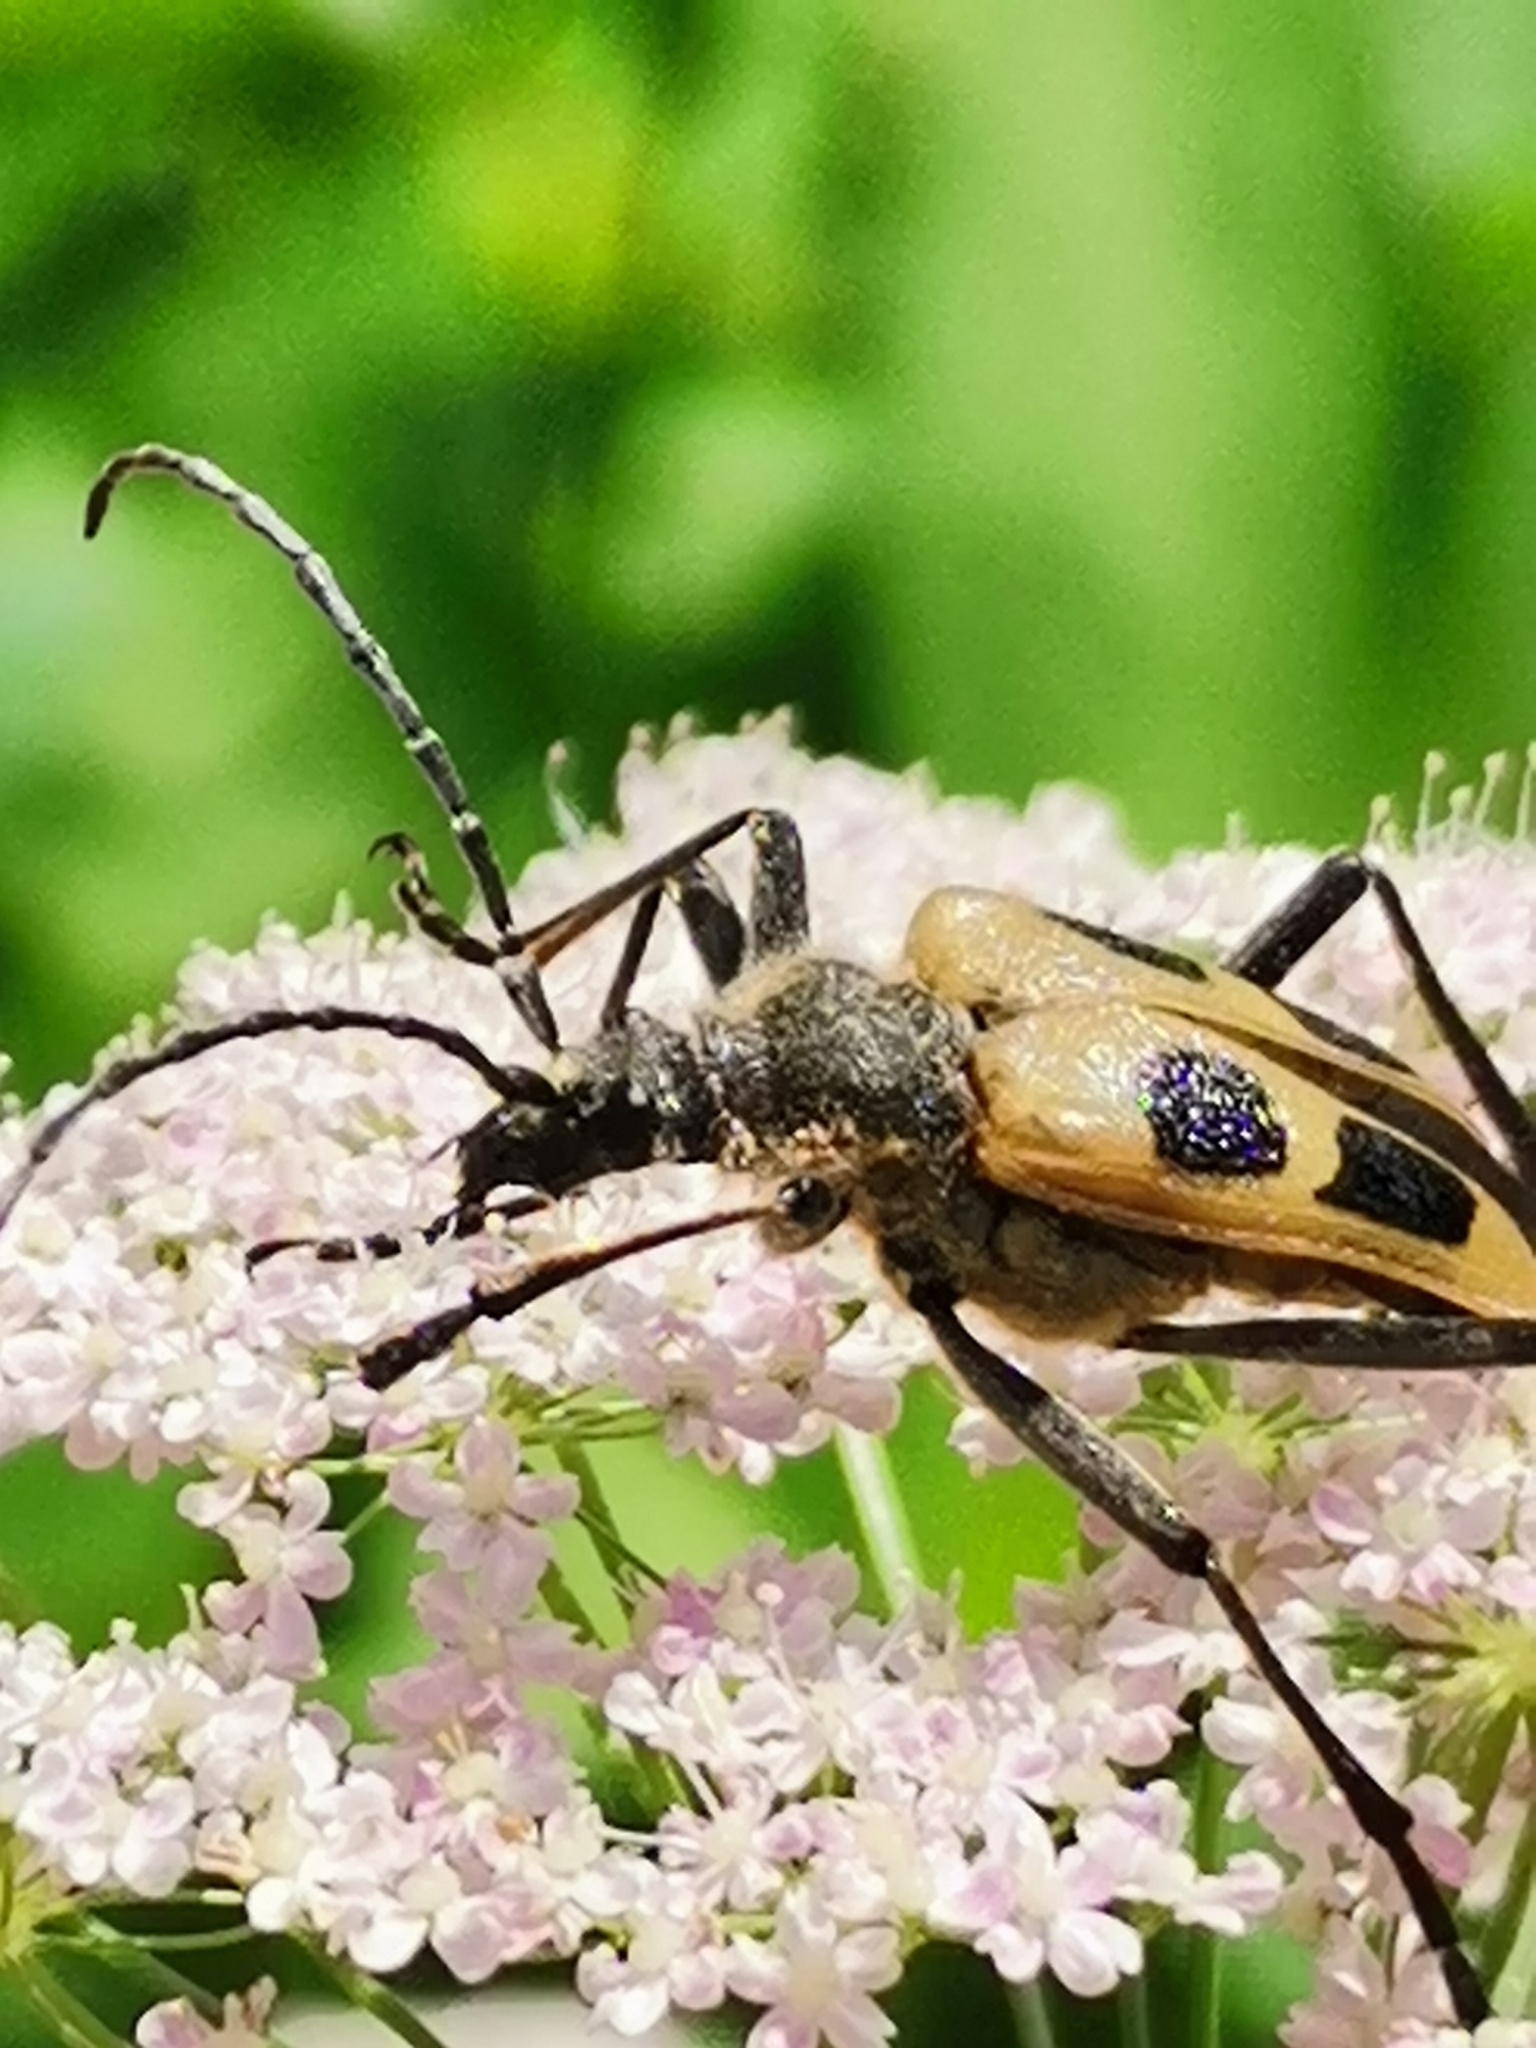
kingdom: Animalia
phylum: Arthropoda
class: Insecta
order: Coleoptera
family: Cerambycidae
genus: Pachyta
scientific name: Pachyta quadrimaculata
